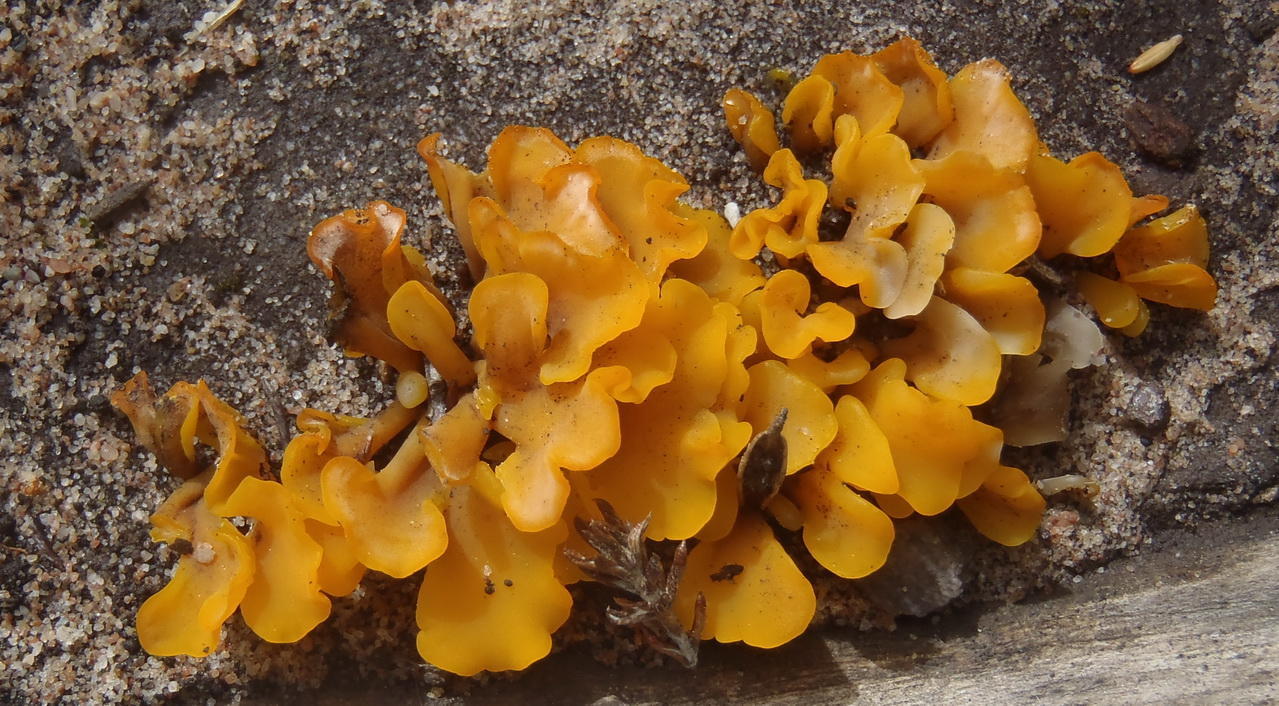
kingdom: Fungi
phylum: Basidiomycota
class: Dacrymycetes
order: Dacrymycetales
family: Dacrymycetaceae
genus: Dacrymyces
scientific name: Dacrymyces spathularius
